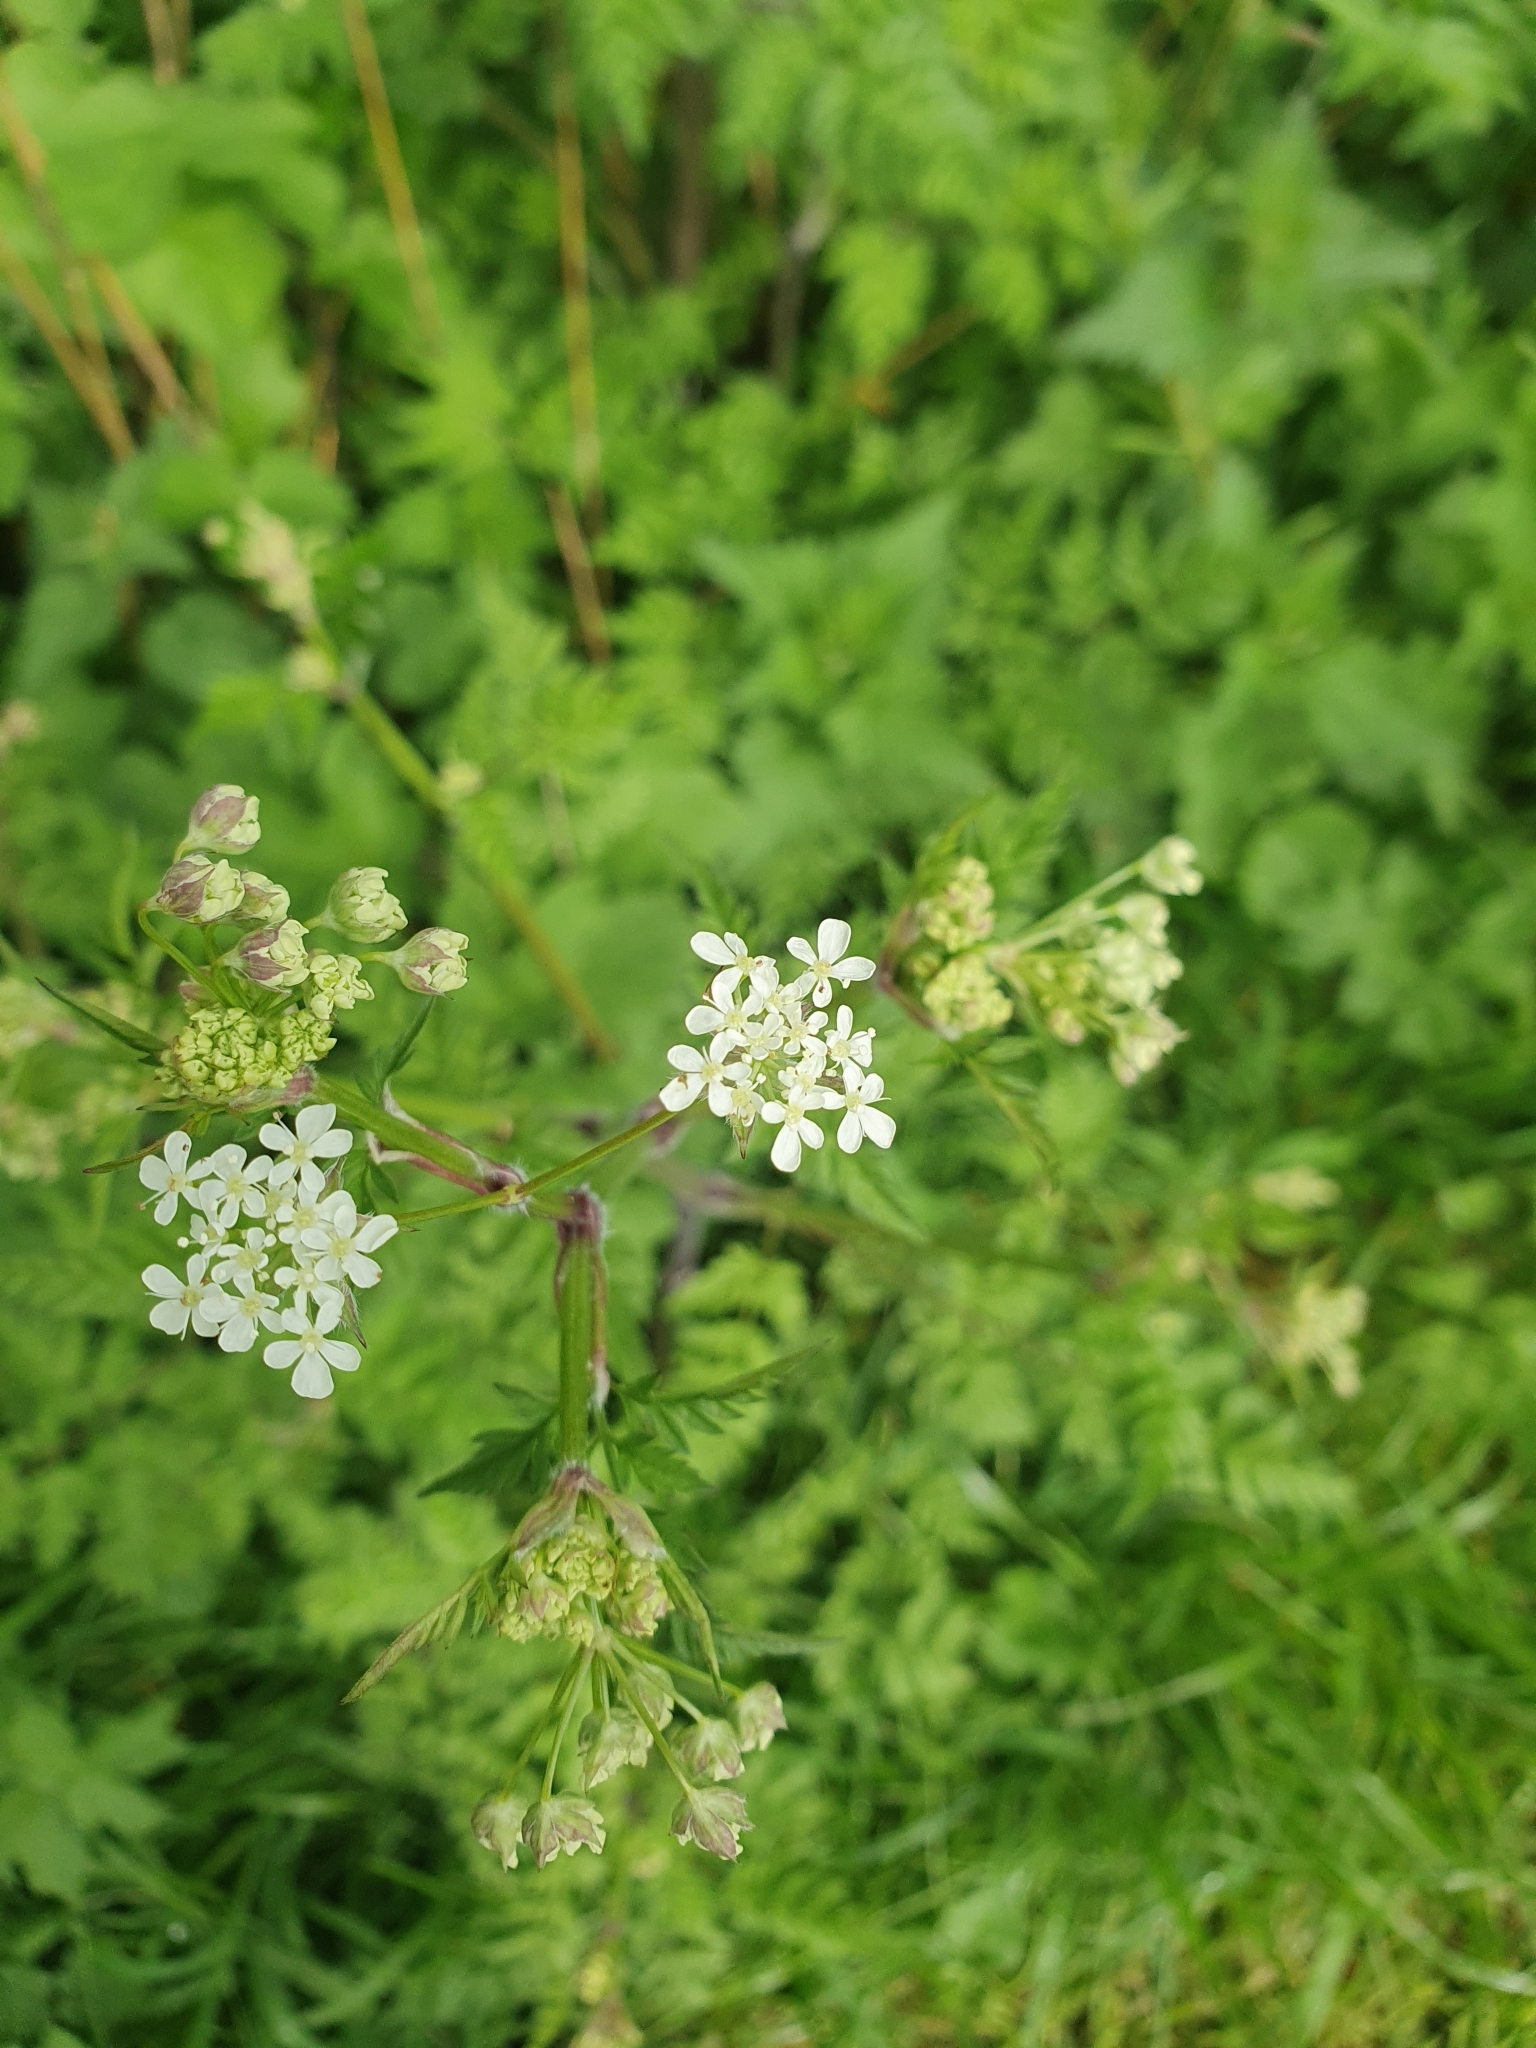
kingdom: Plantae
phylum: Tracheophyta
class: Magnoliopsida
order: Apiales
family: Apiaceae
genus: Anthriscus
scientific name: Anthriscus sylvestris
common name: Cow parsley
